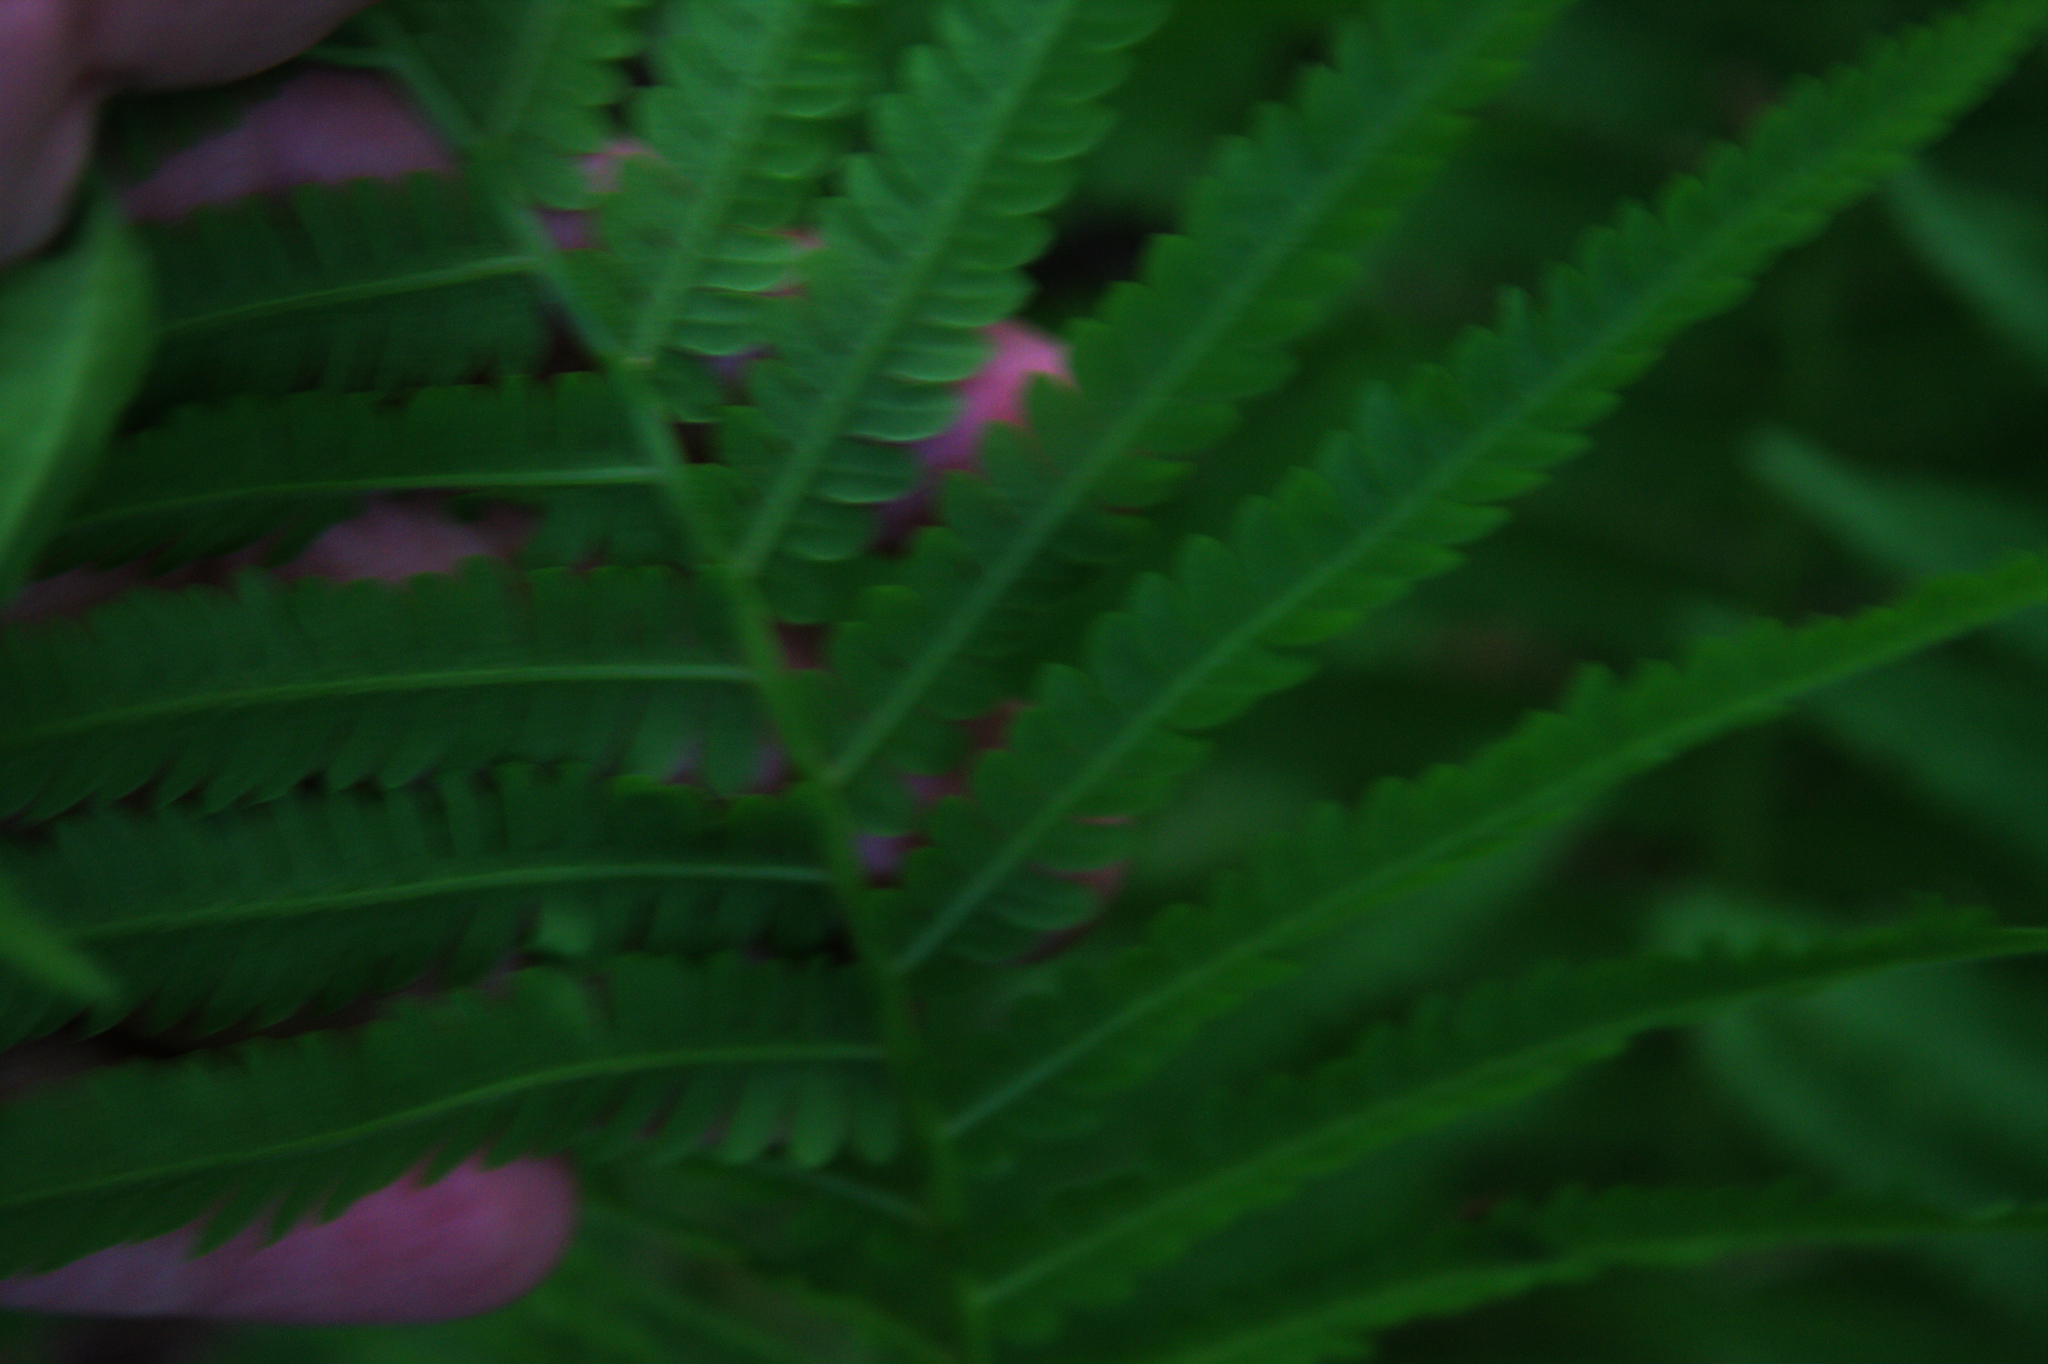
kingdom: Plantae
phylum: Tracheophyta
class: Polypodiopsida
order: Polypodiales
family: Onocleaceae
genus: Matteuccia
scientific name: Matteuccia struthiopteris
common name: Ostrich fern
